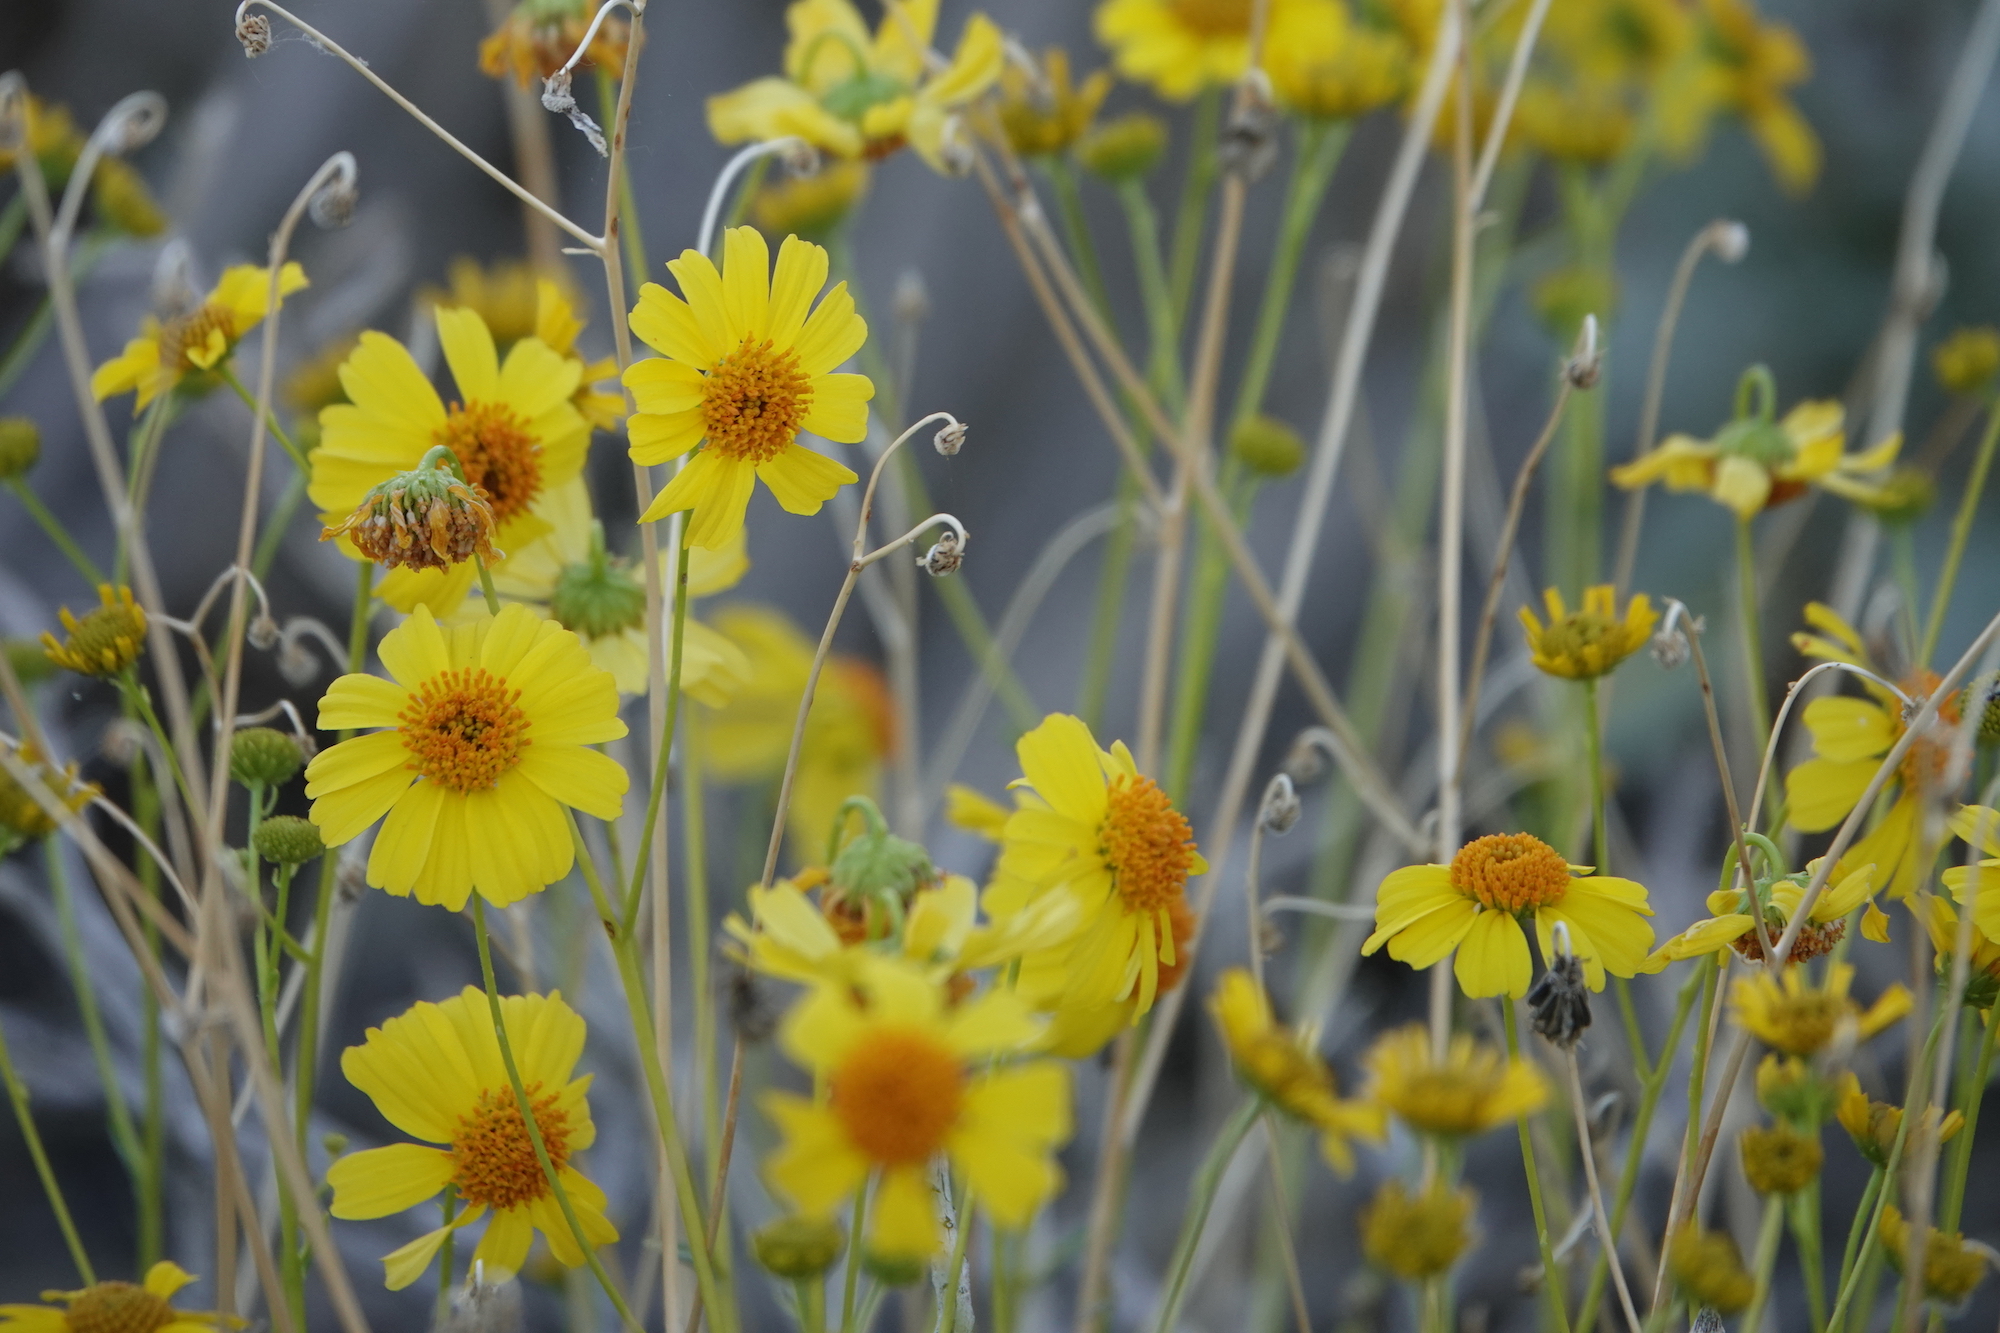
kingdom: Plantae
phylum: Tracheophyta
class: Magnoliopsida
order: Asterales
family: Asteraceae
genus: Encelia
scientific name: Encelia farinosa
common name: Brittlebush
